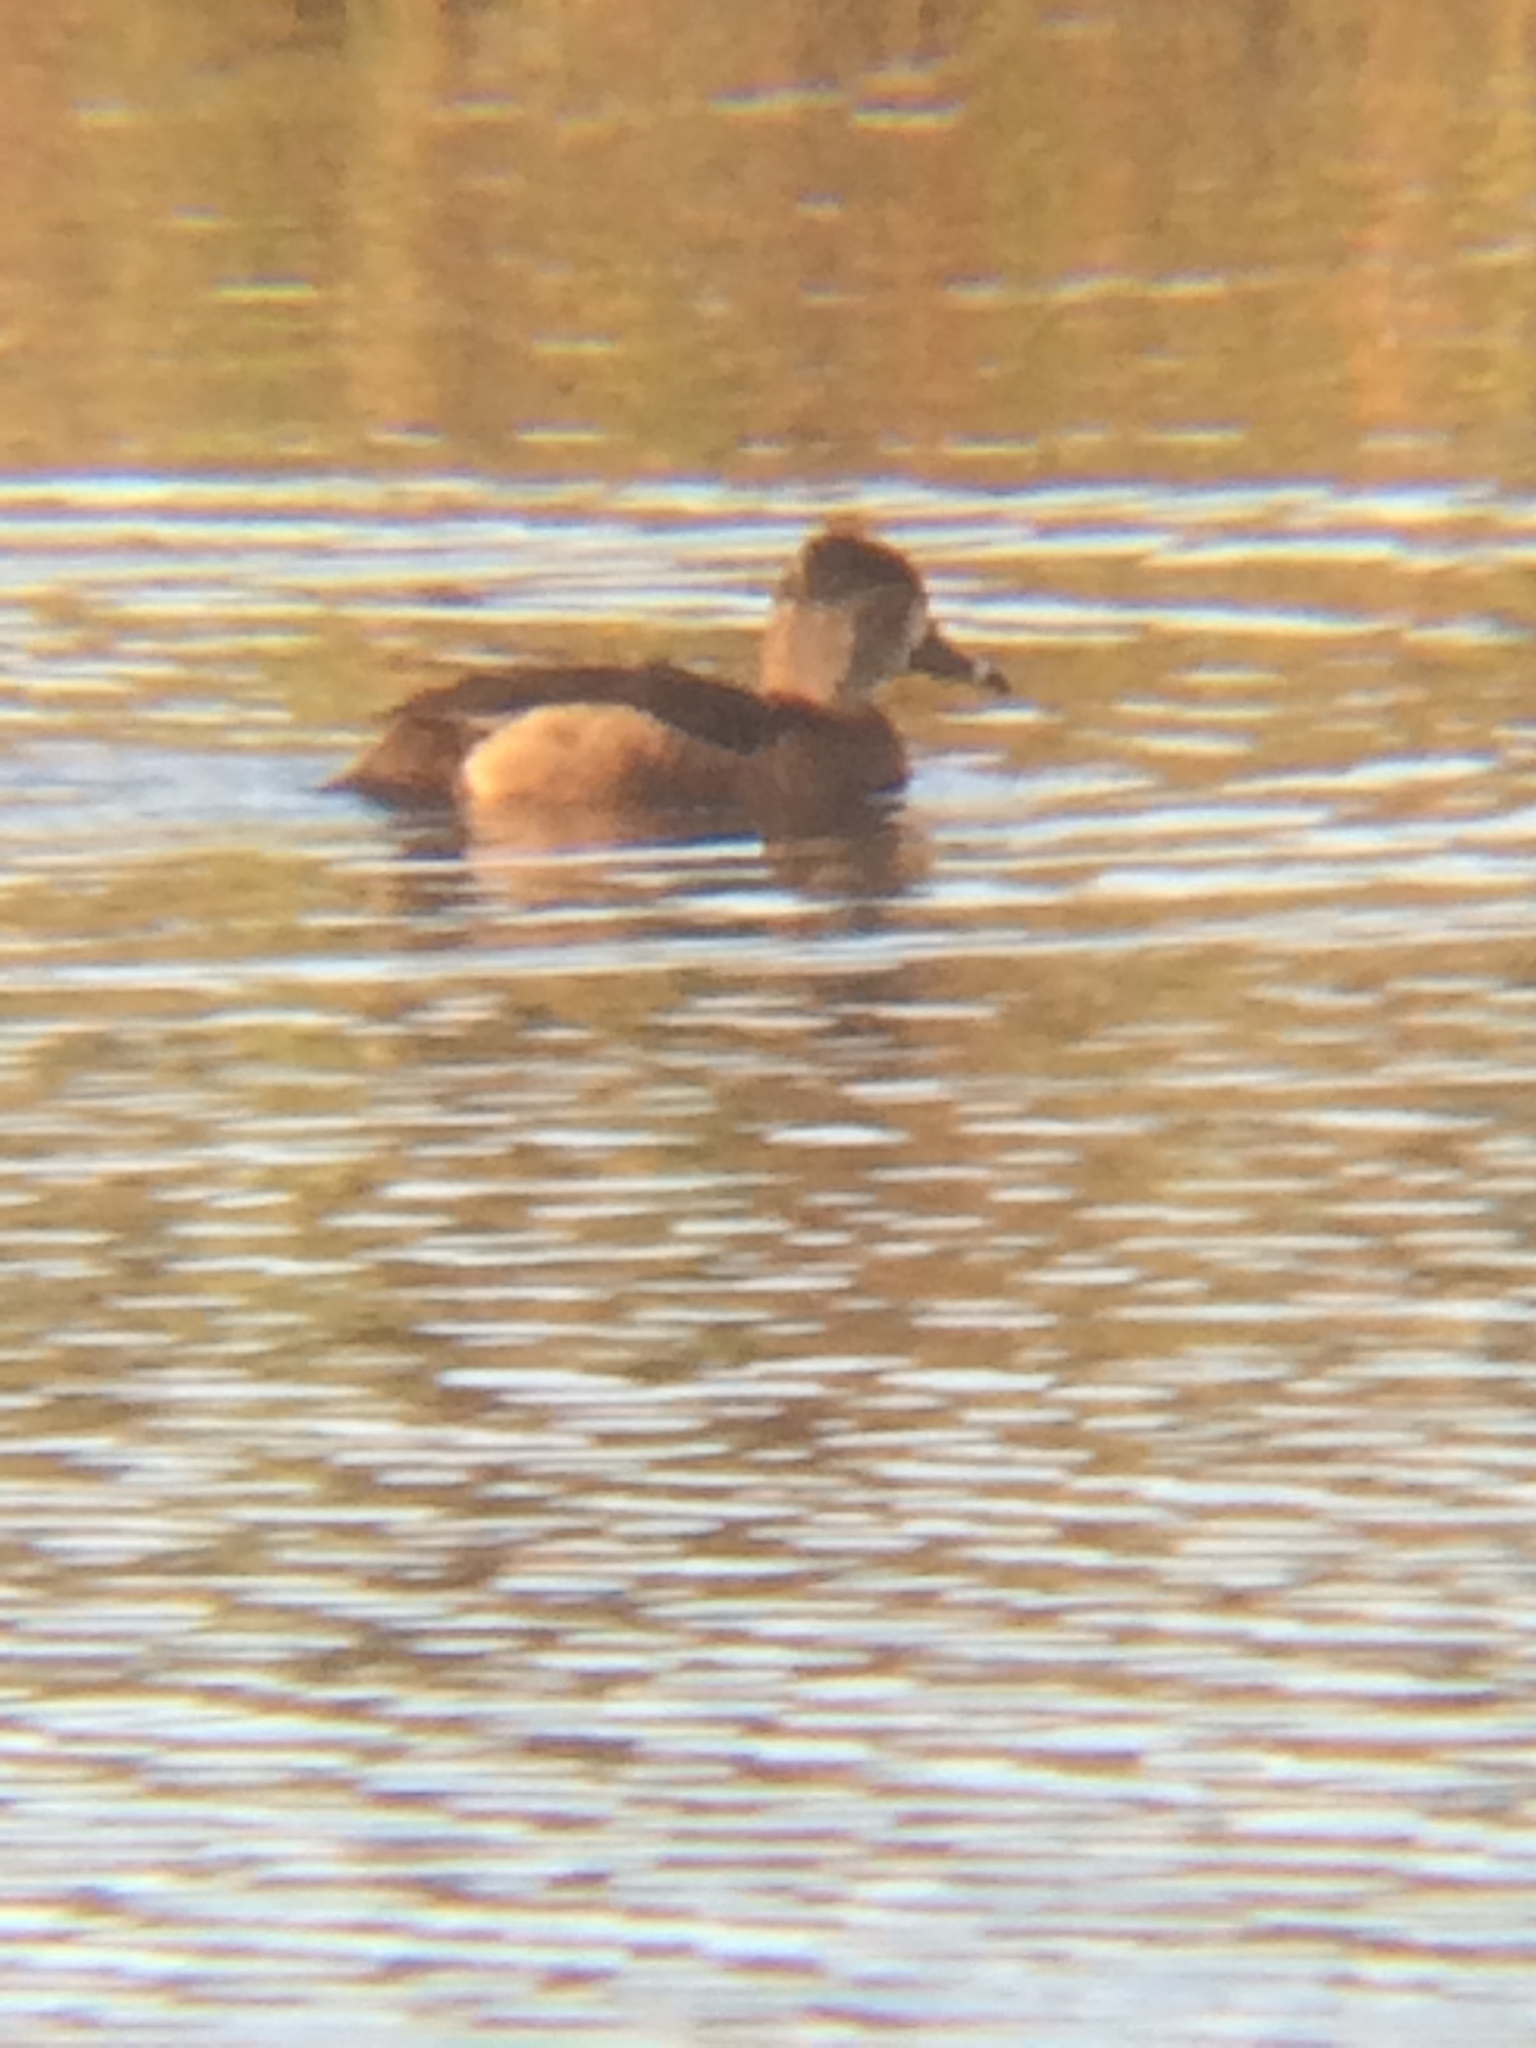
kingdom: Animalia
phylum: Chordata
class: Aves
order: Anseriformes
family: Anatidae
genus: Aythya
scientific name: Aythya collaris
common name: Ring-necked duck
